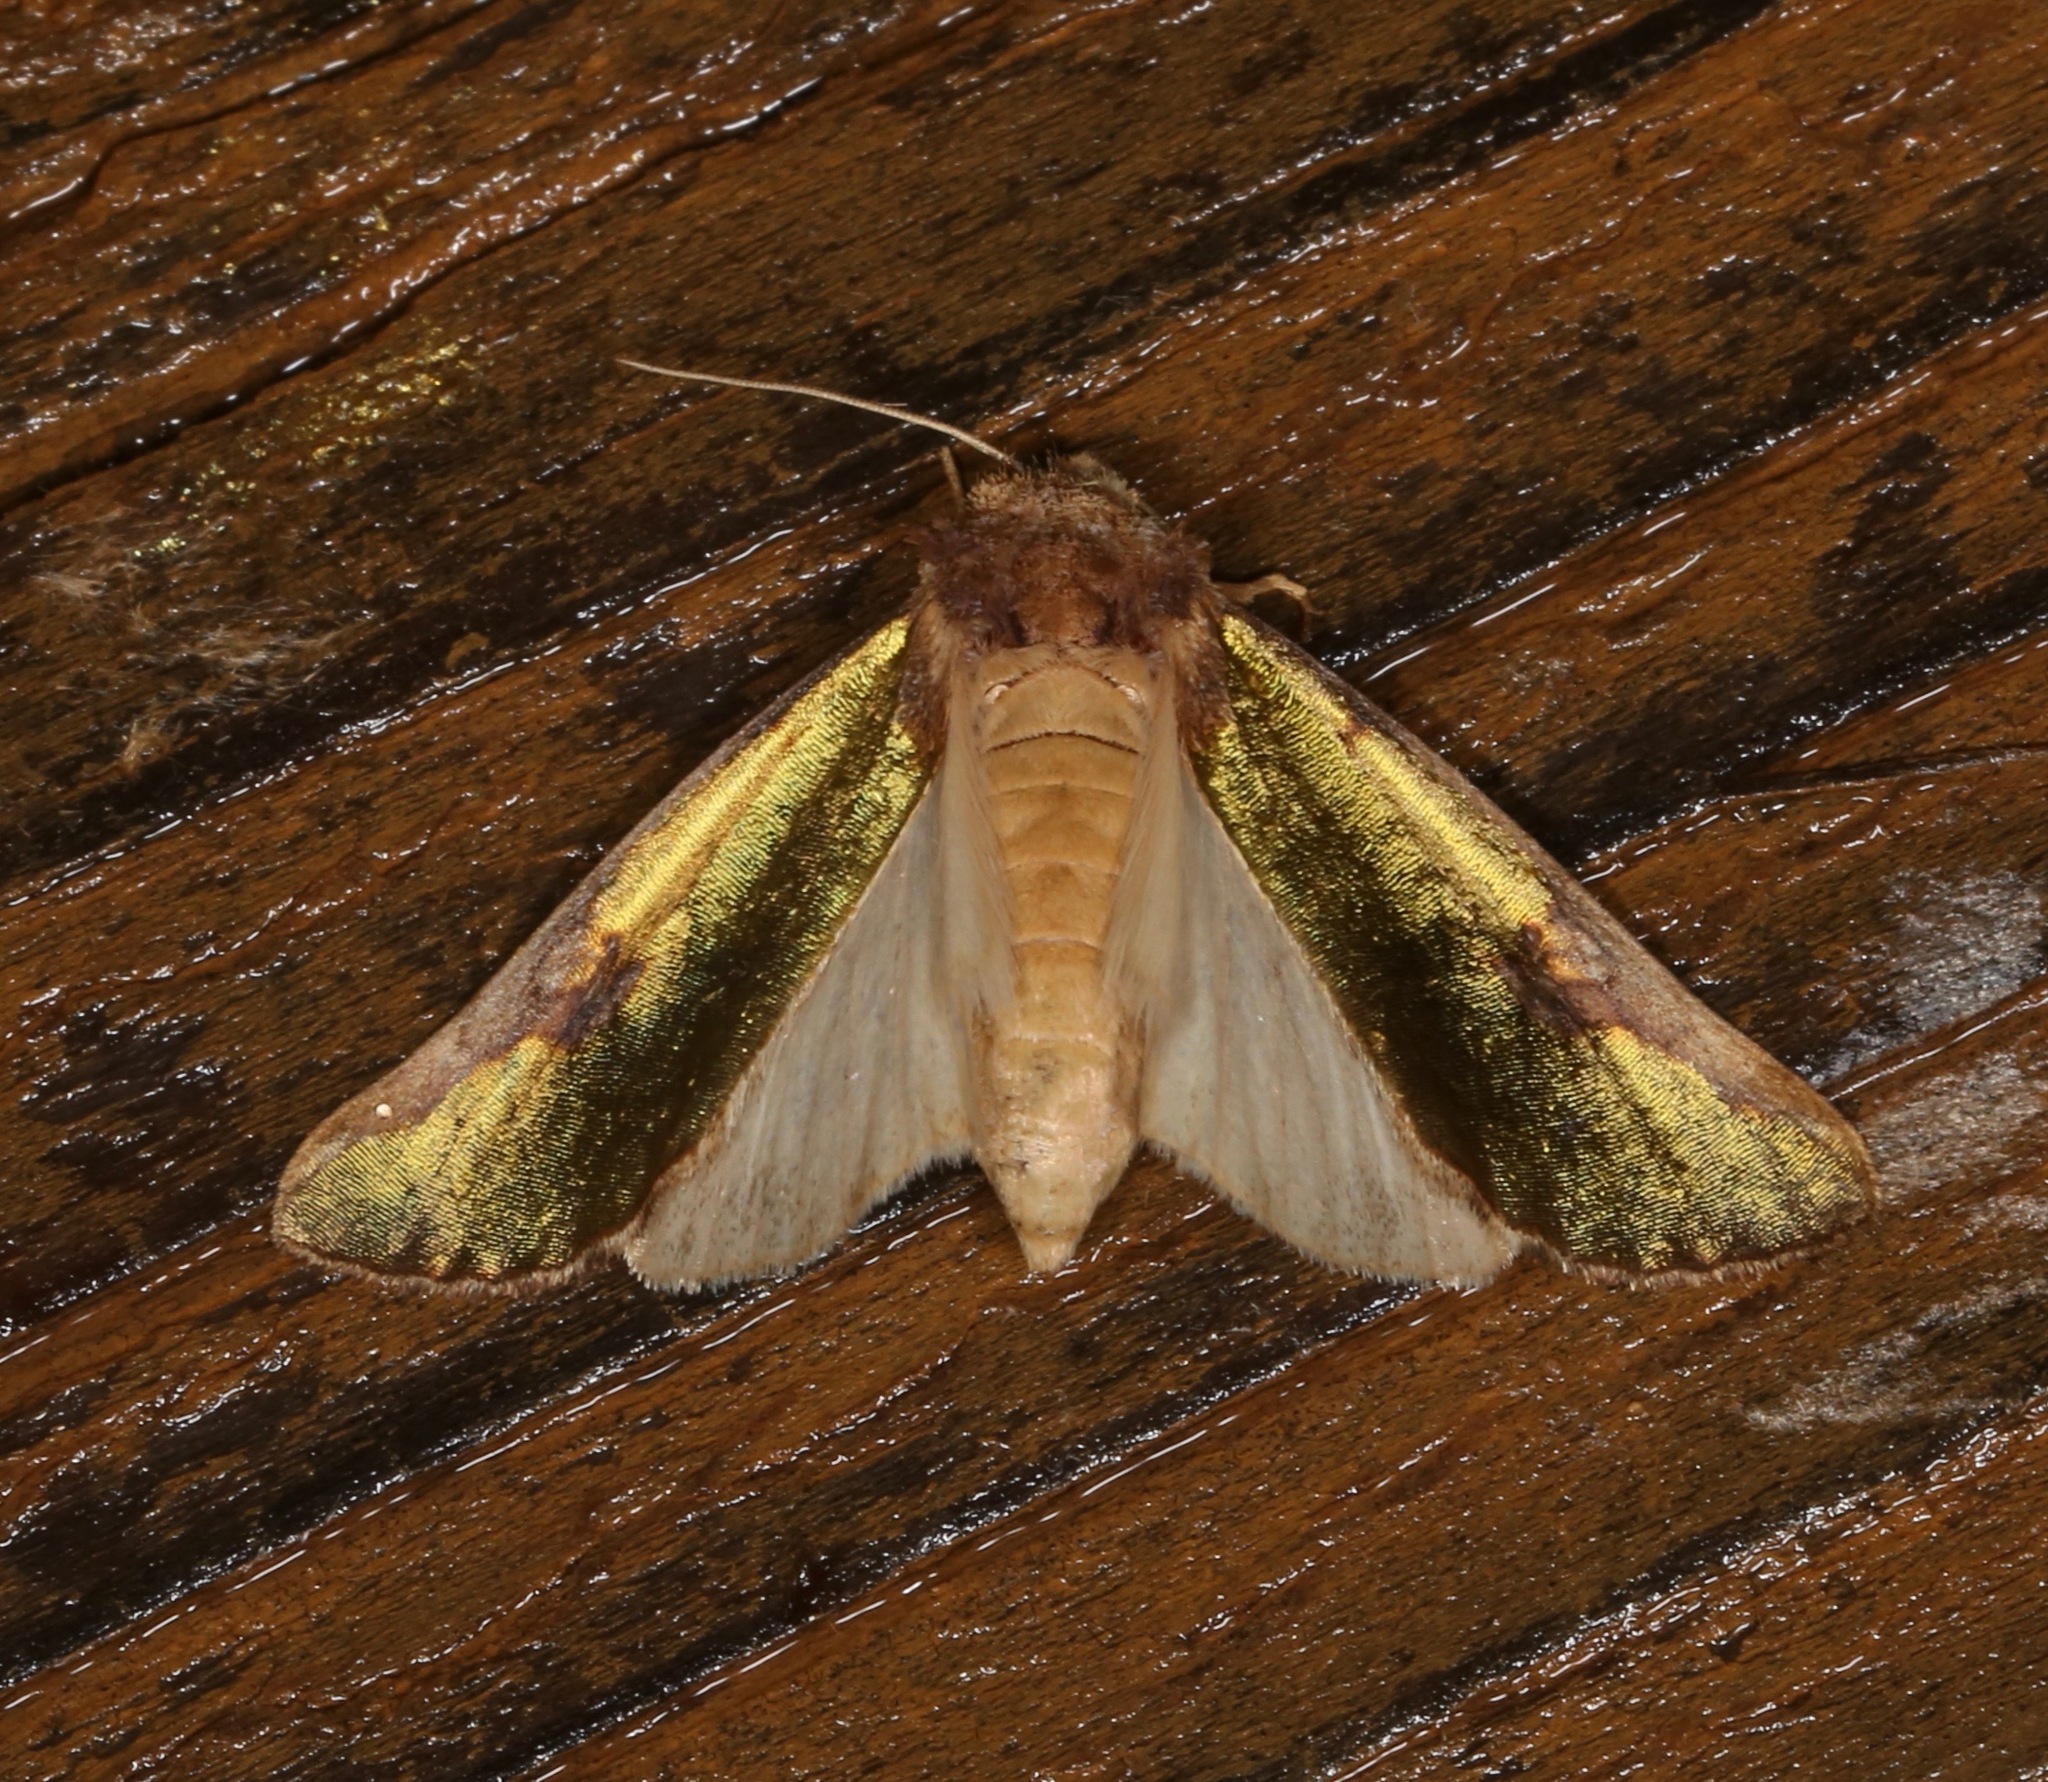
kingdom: Animalia
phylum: Arthropoda
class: Insecta
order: Lepidoptera
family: Noctuidae
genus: Chalcopasta
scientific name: Chalcopasta territans
